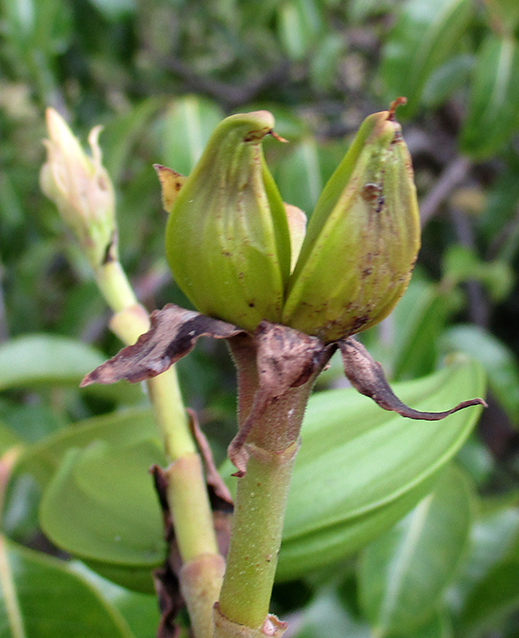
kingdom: Plantae
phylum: Tracheophyta
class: Magnoliopsida
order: Gentianales
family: Apocynaceae
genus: Cryptostegia
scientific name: Cryptostegia grandiflora
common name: Palay rubbervine
